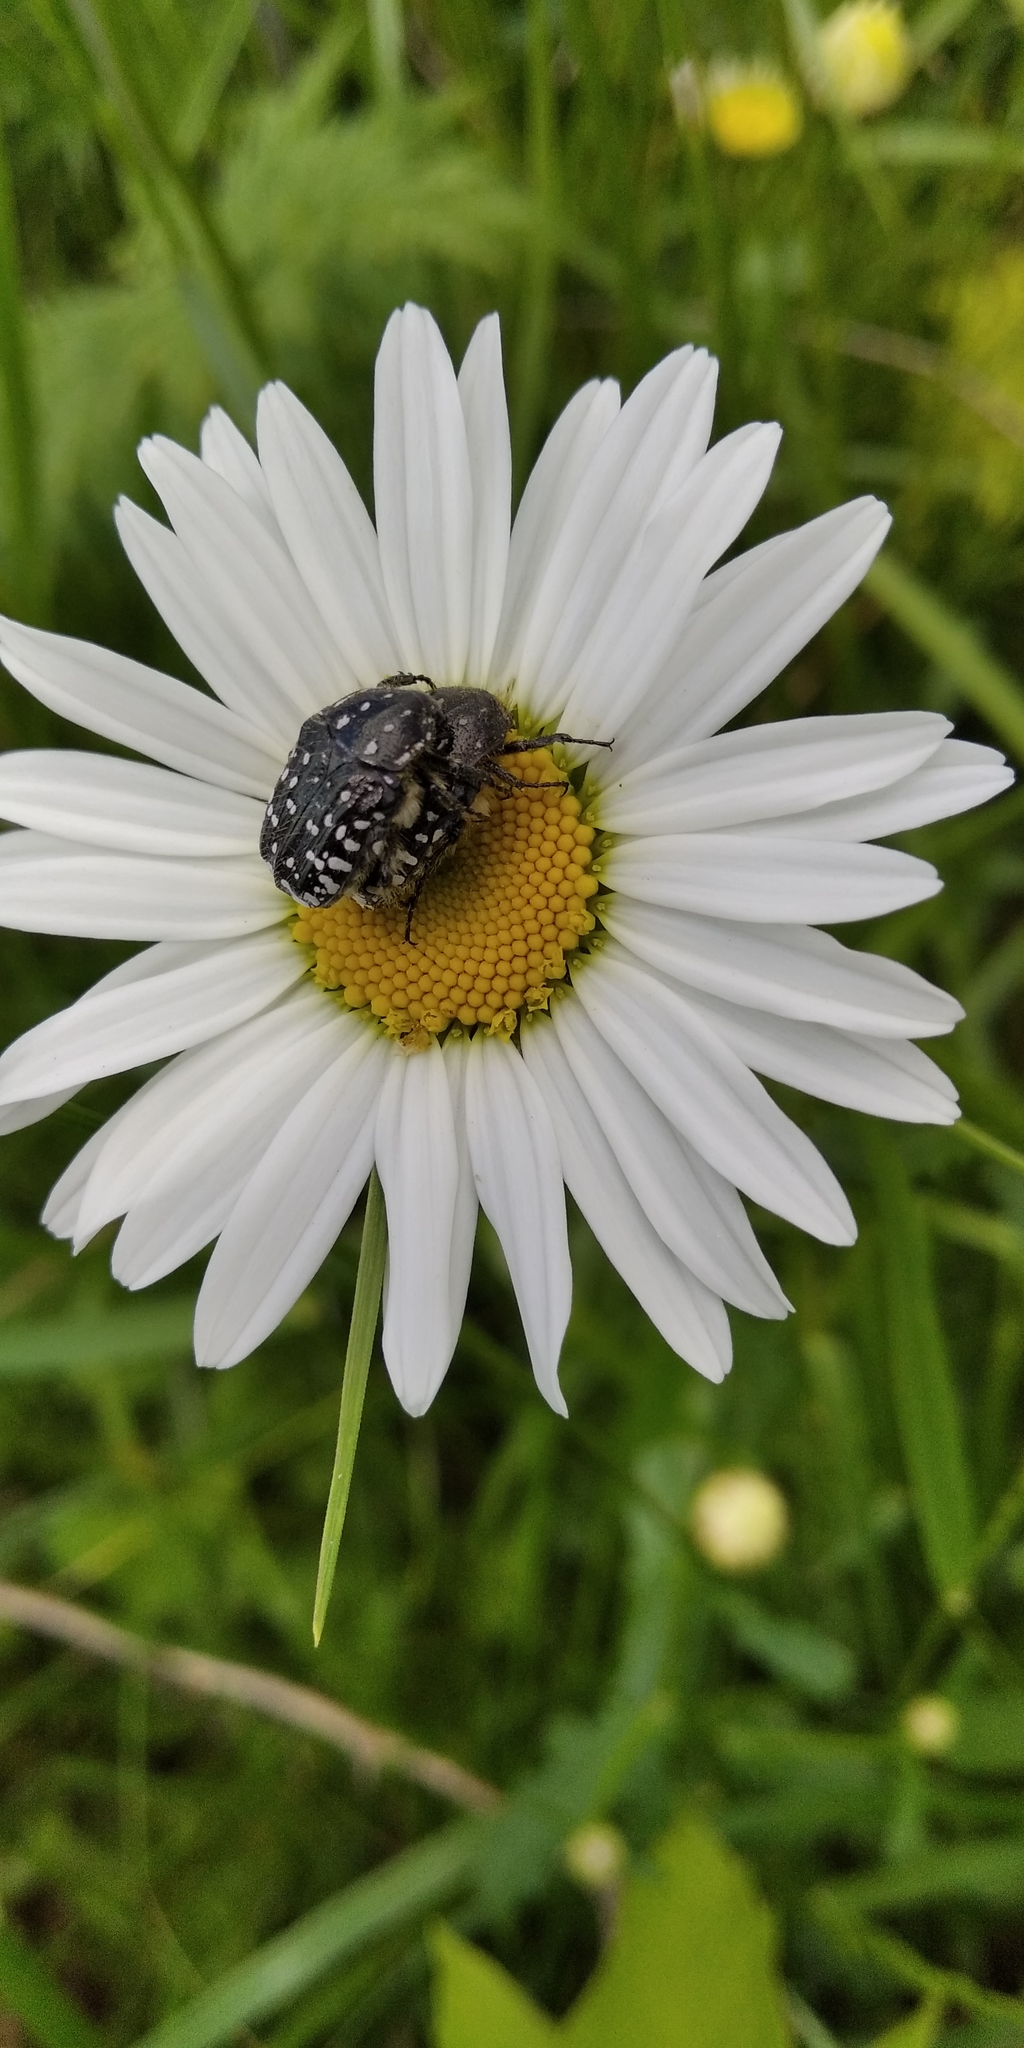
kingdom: Animalia
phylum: Arthropoda
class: Insecta
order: Coleoptera
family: Scarabaeidae
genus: Oxythyrea
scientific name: Oxythyrea funesta
